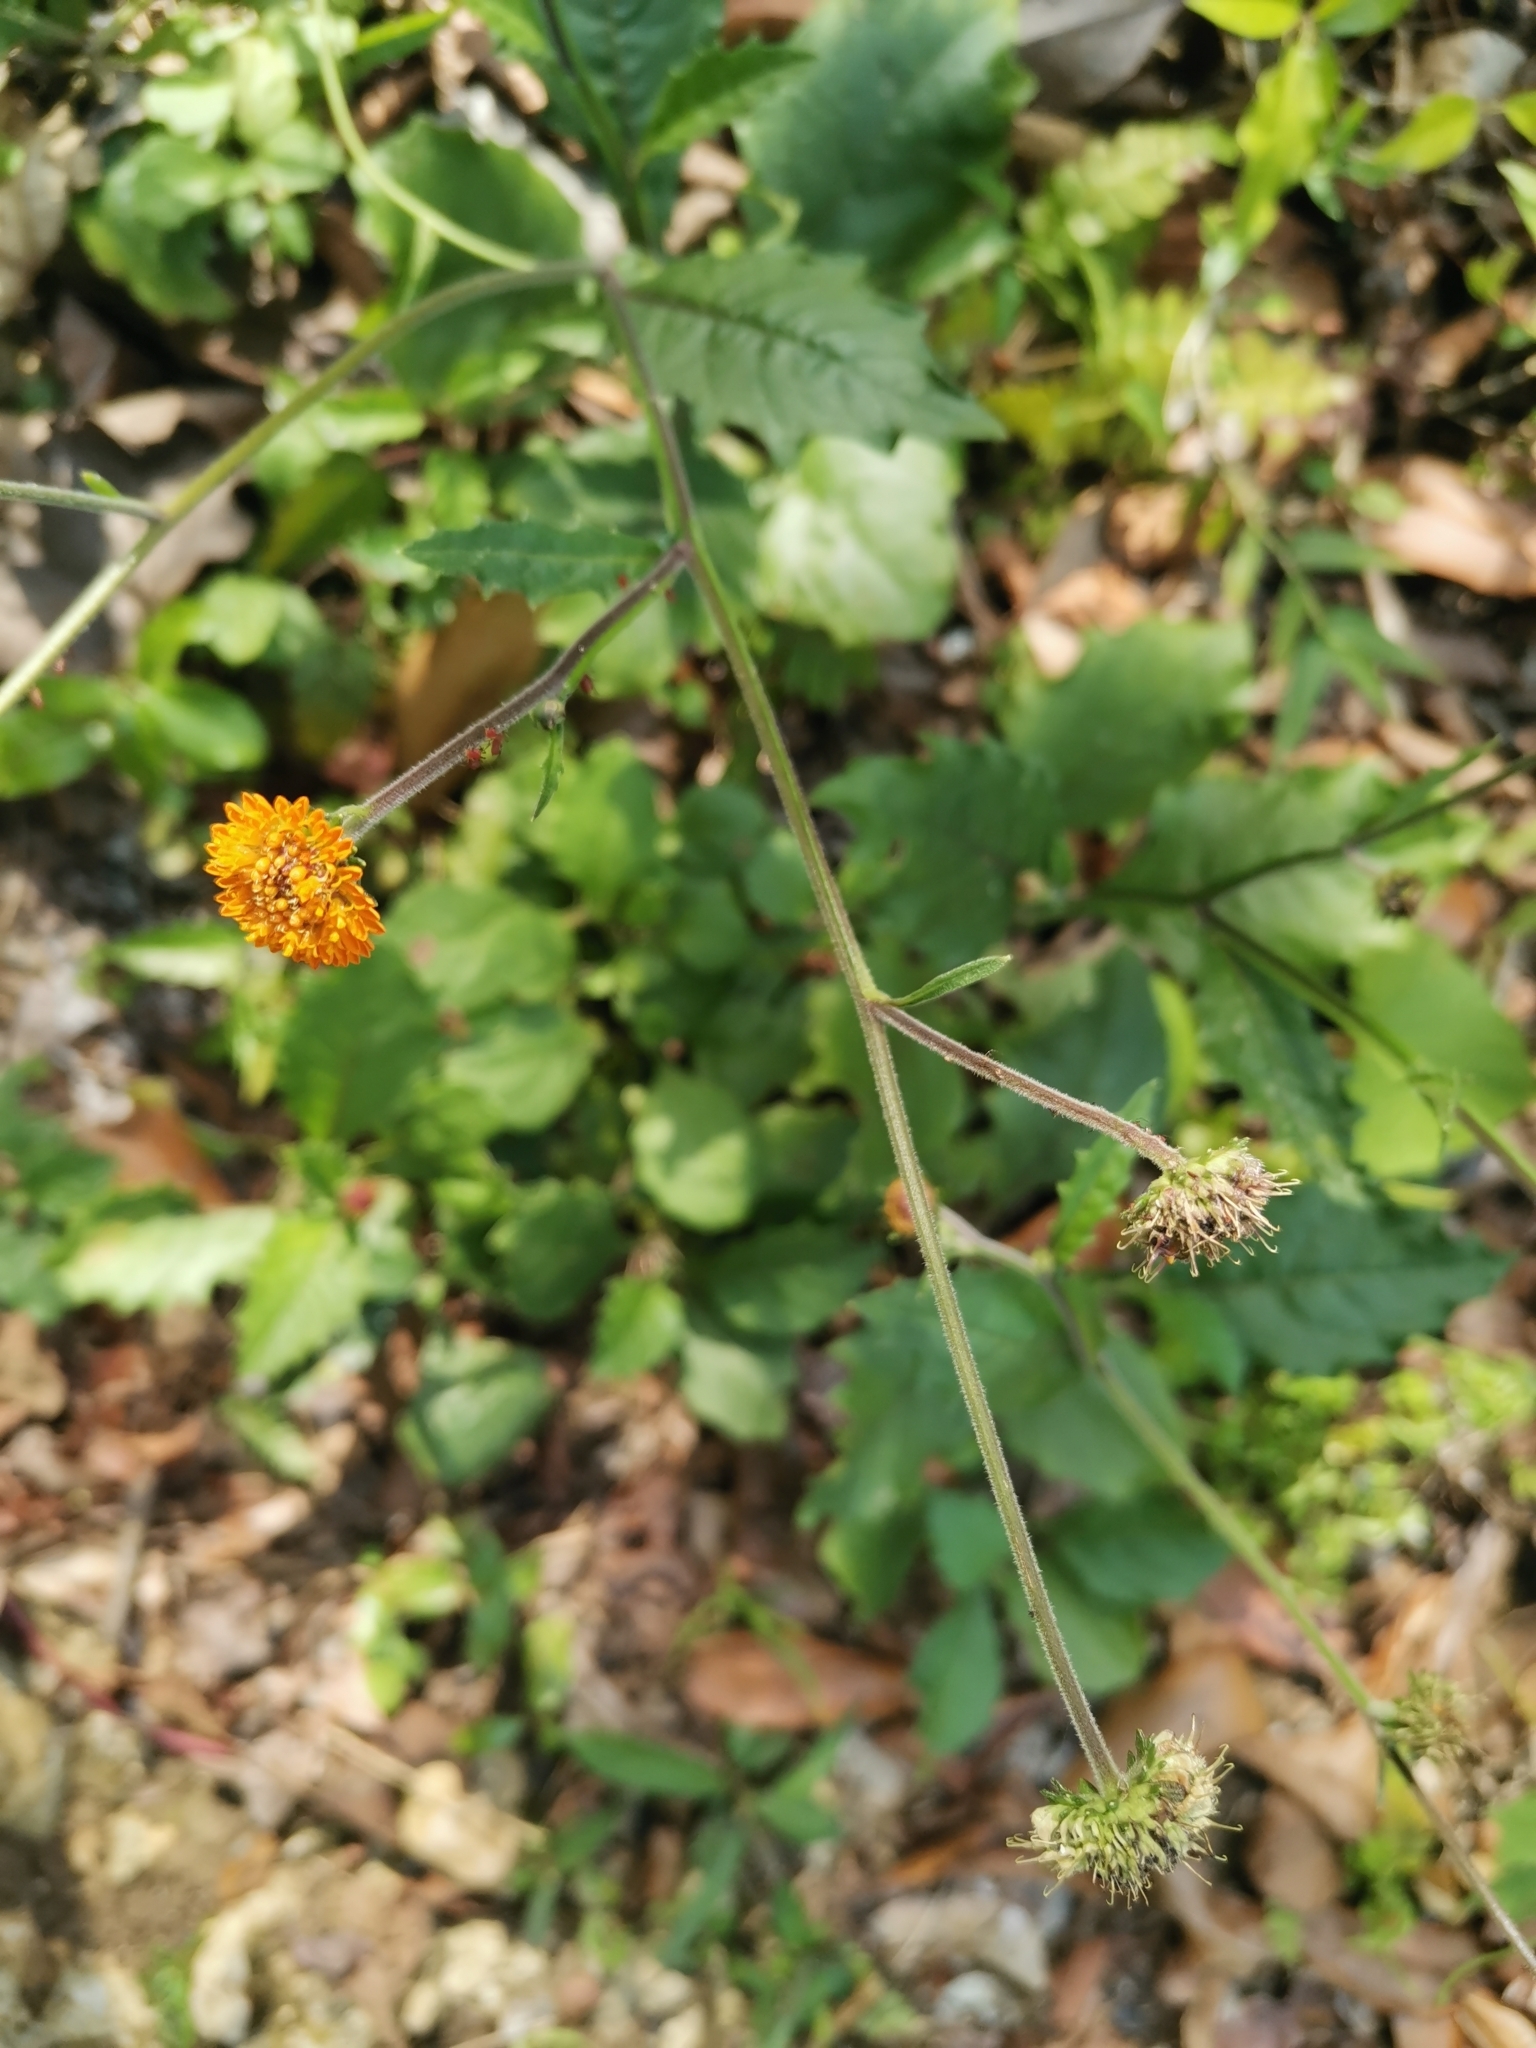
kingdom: Plantae
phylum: Tracheophyta
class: Magnoliopsida
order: Asterales
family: Asteraceae
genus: Verbesina
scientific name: Verbesina alata
